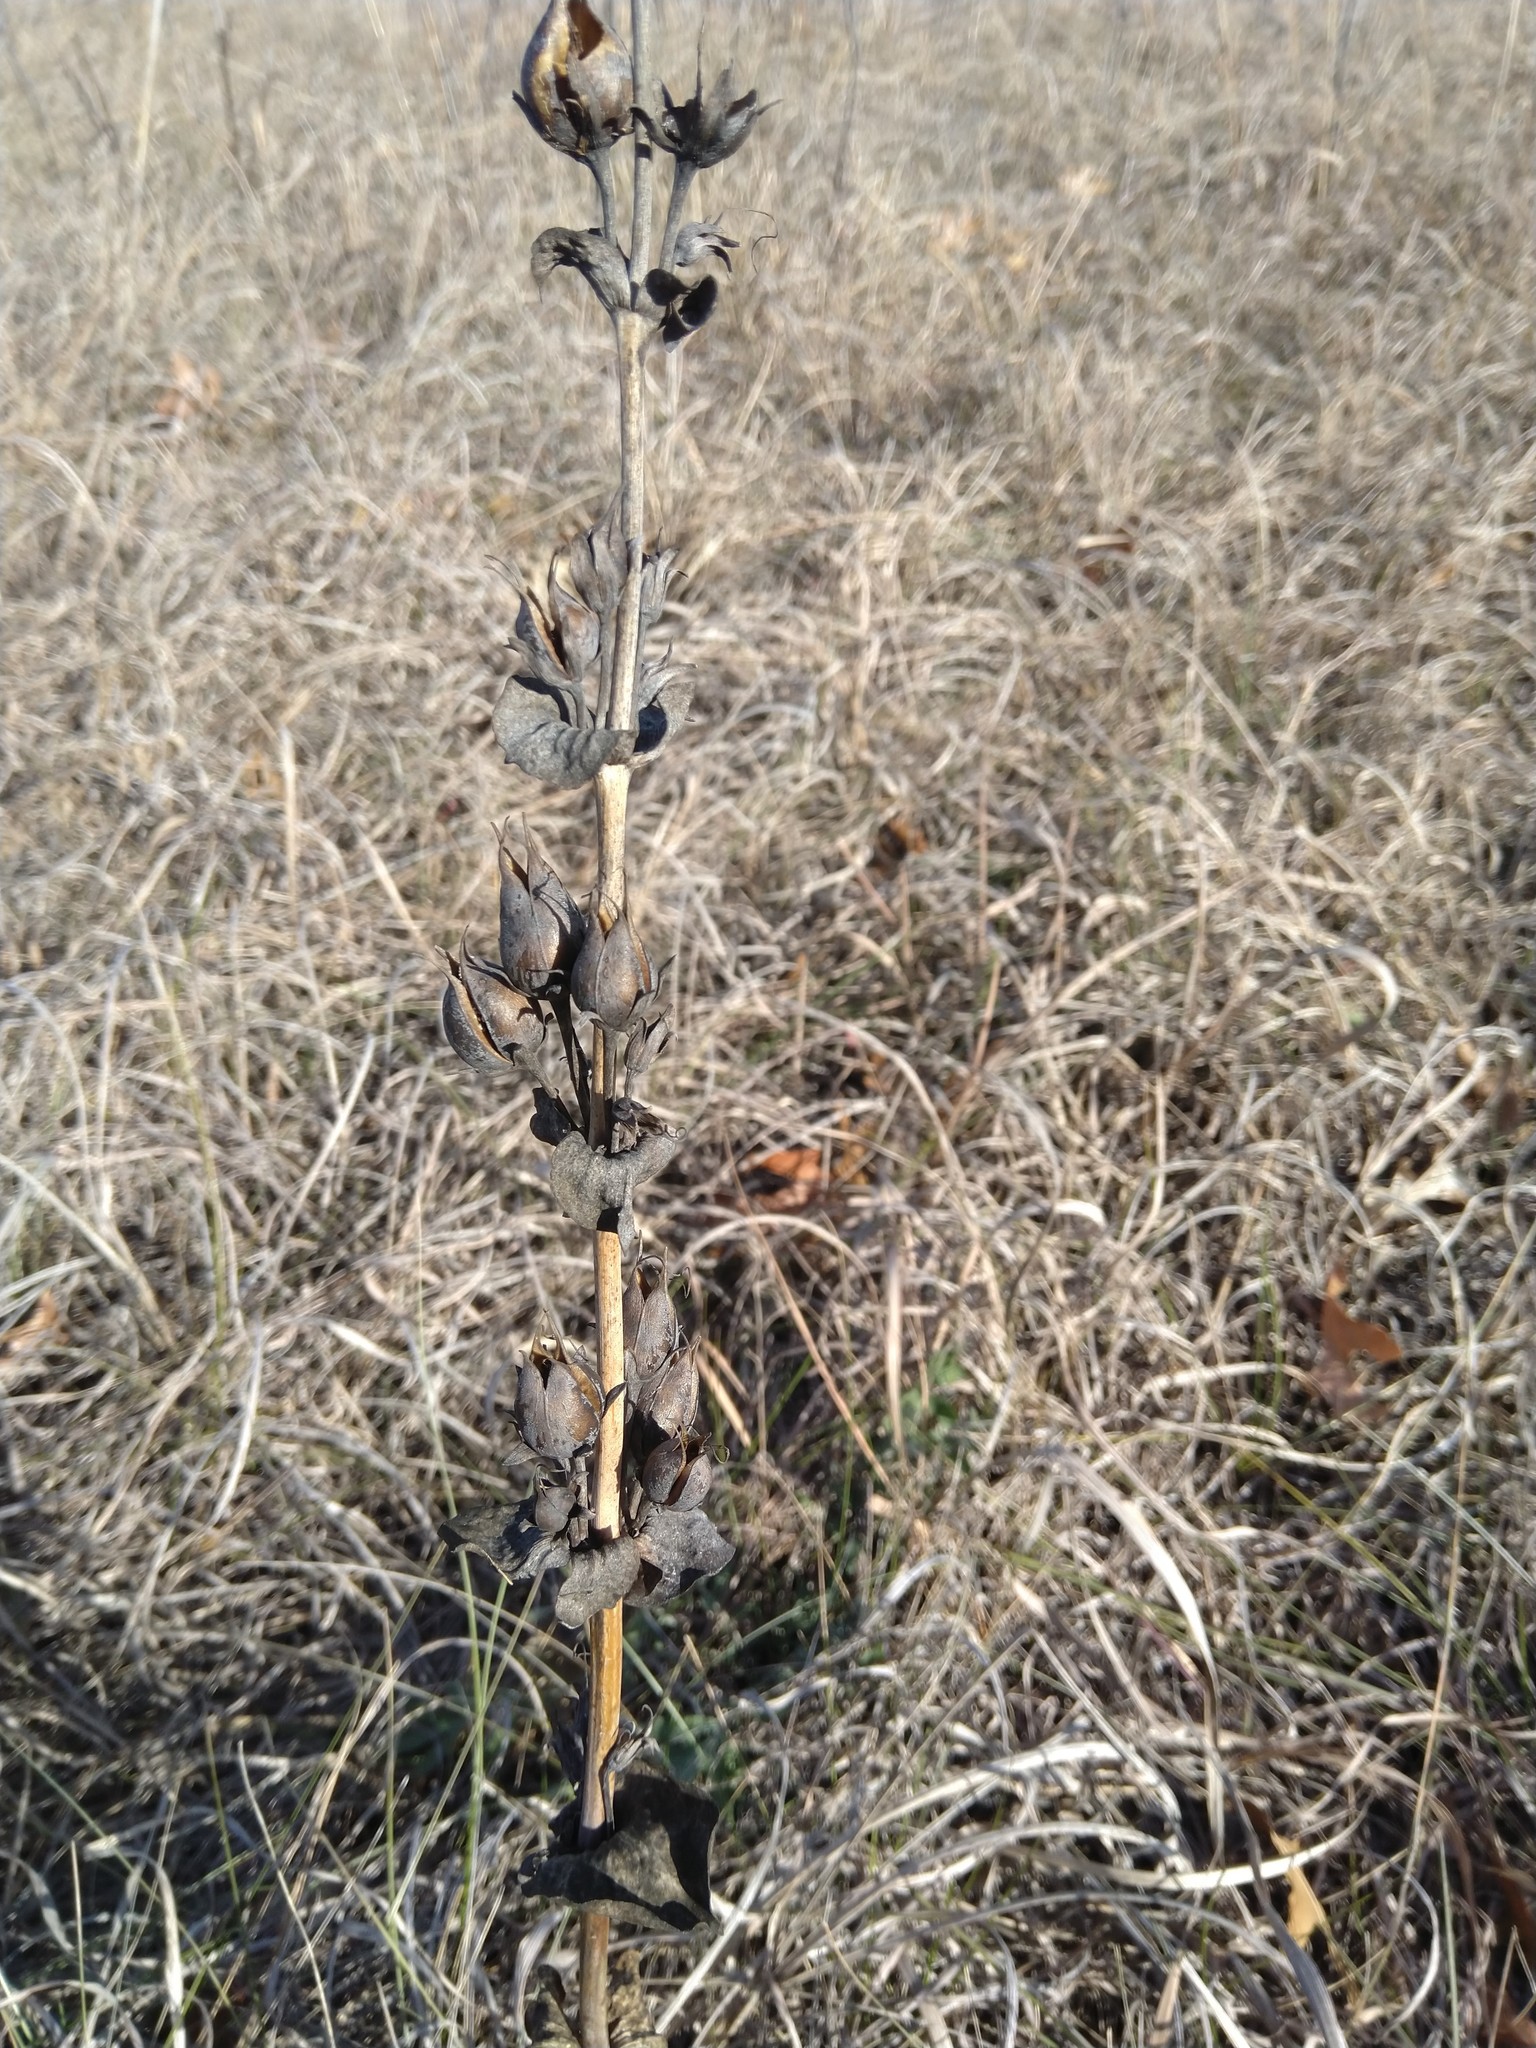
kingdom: Plantae
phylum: Tracheophyta
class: Magnoliopsida
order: Lamiales
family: Plantaginaceae
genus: Penstemon
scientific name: Penstemon
